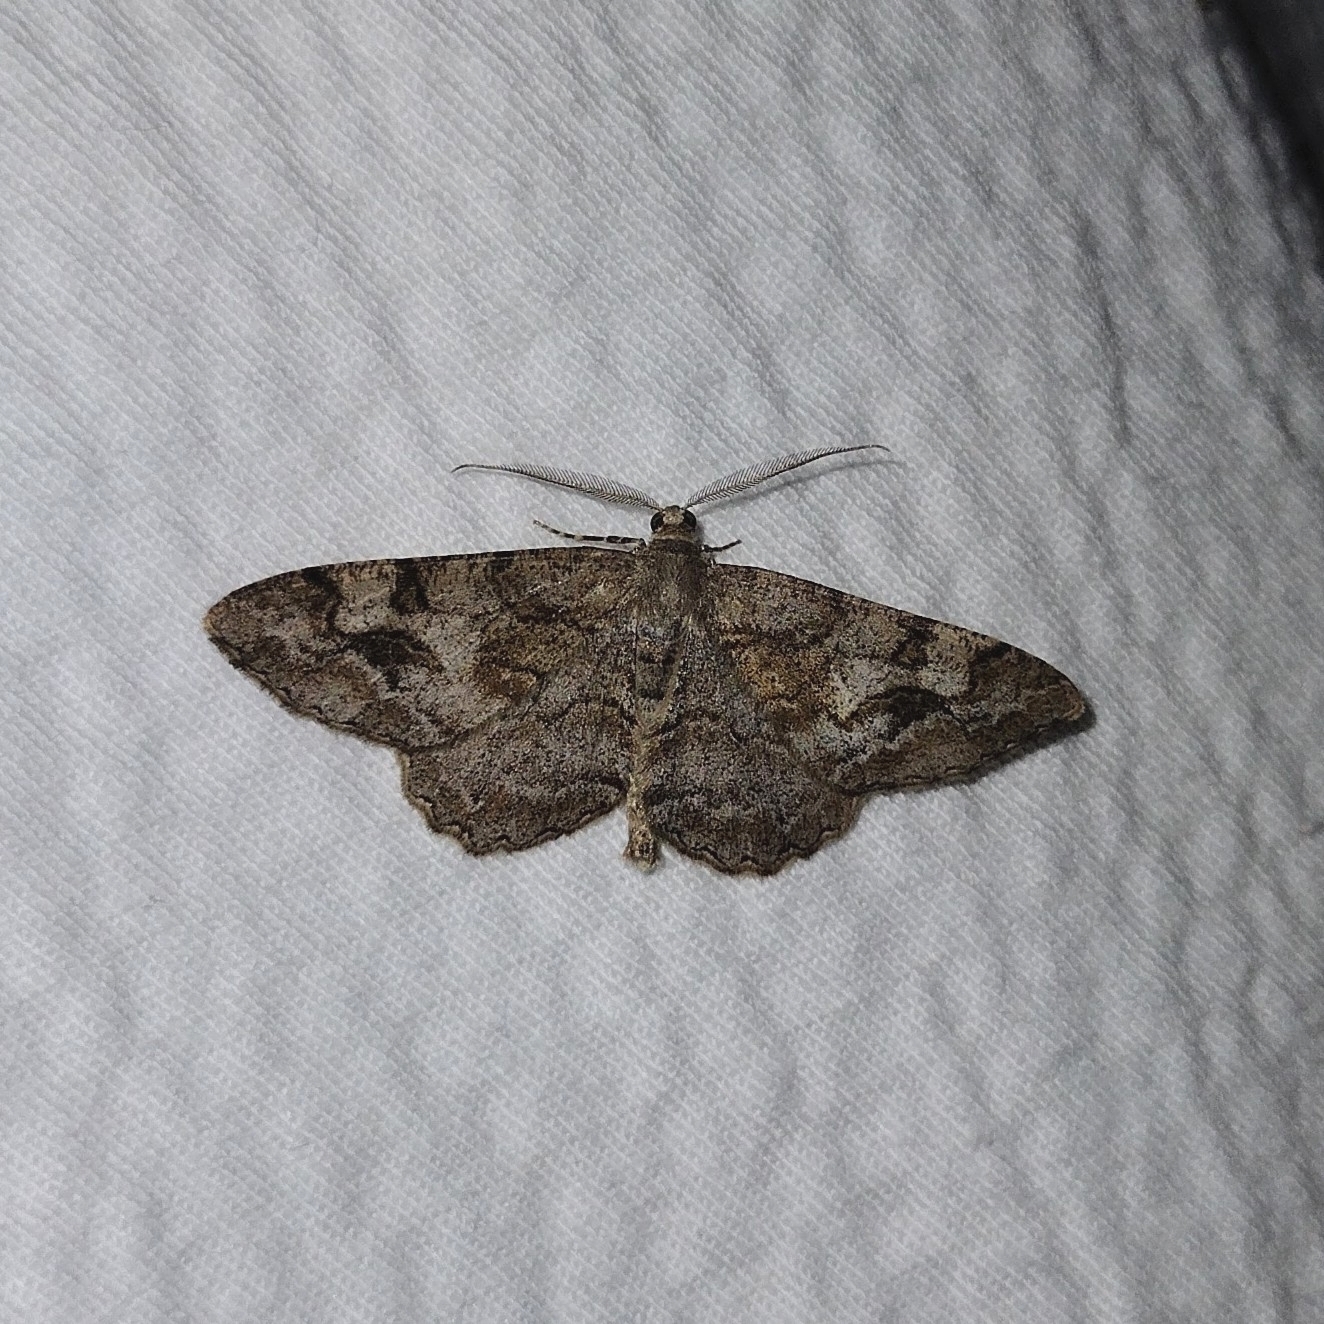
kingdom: Animalia
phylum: Arthropoda
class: Insecta
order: Lepidoptera
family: Geometridae
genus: Alcis
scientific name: Alcis repandata
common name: Mottled beauty
